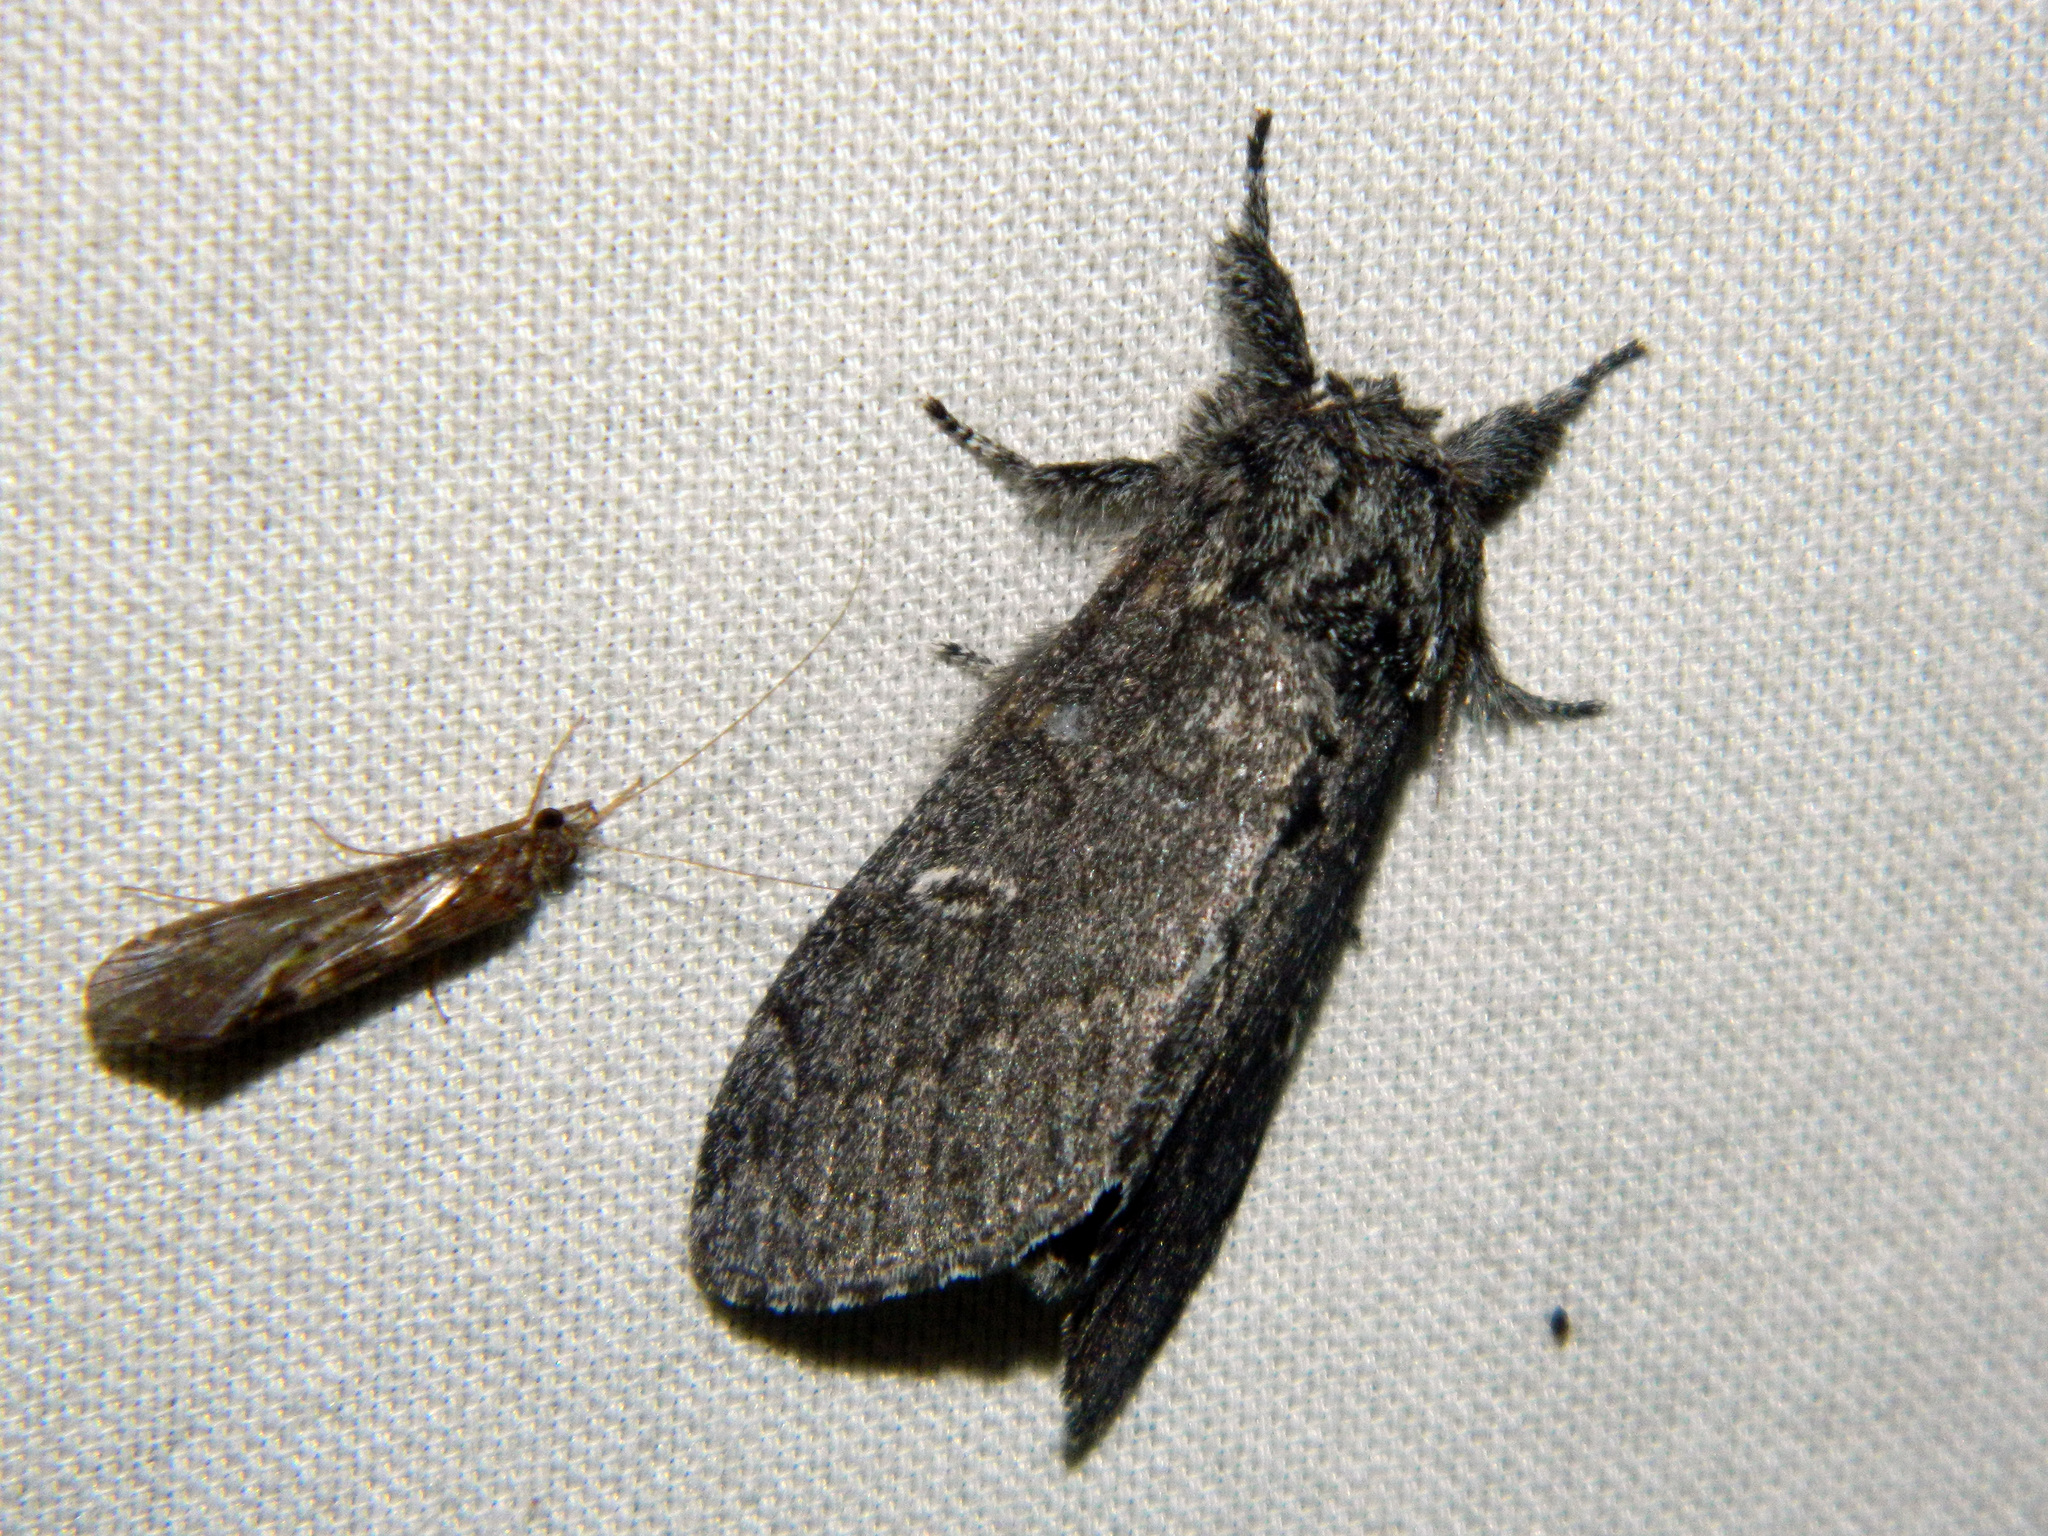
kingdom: Animalia
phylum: Arthropoda
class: Insecta
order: Lepidoptera
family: Notodontidae
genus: Notodonta
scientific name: Notodonta torva
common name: Large dark prominent
